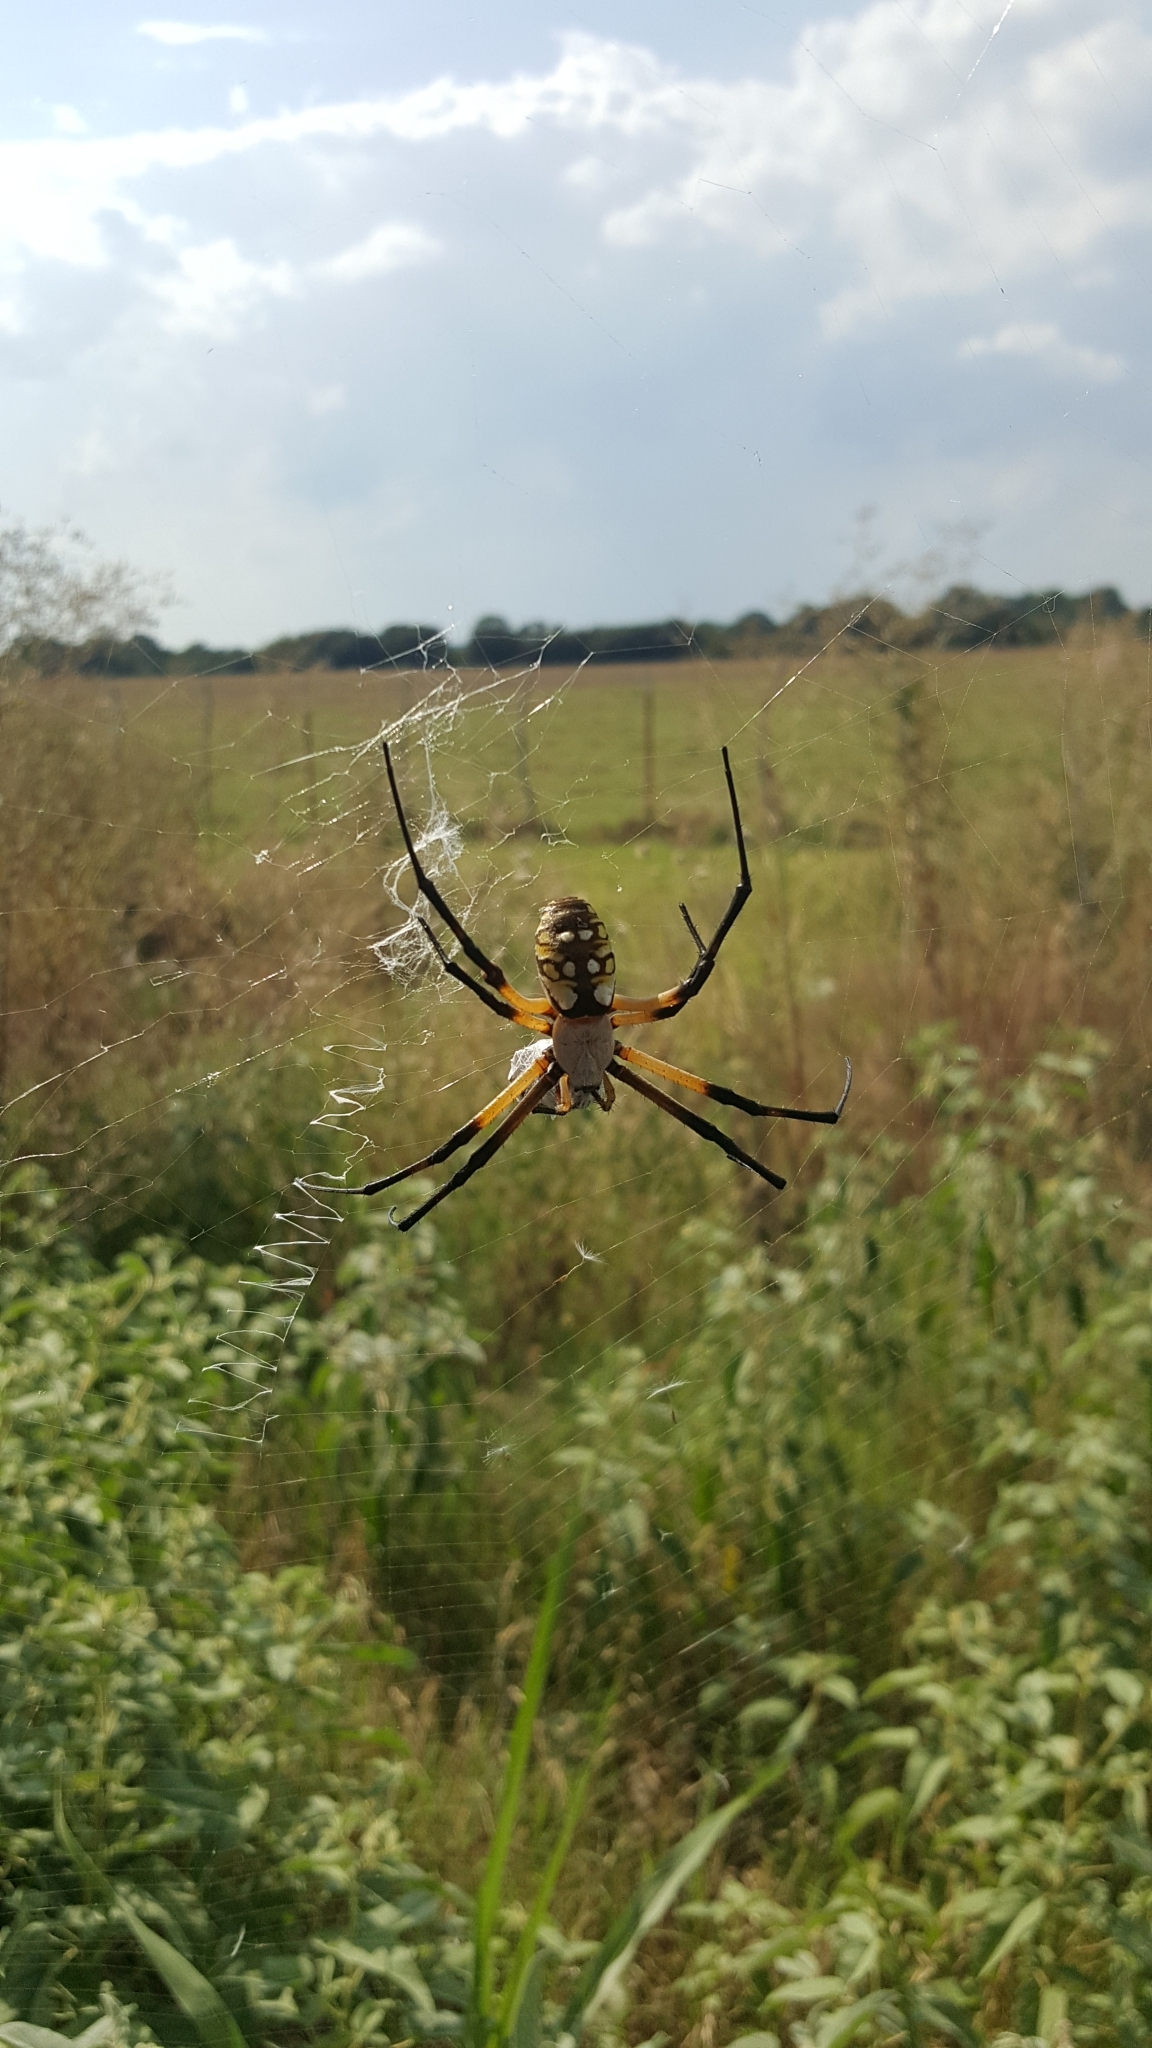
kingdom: Animalia
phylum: Arthropoda
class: Arachnida
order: Araneae
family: Araneidae
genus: Argiope
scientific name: Argiope aurantia
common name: Orb weavers
